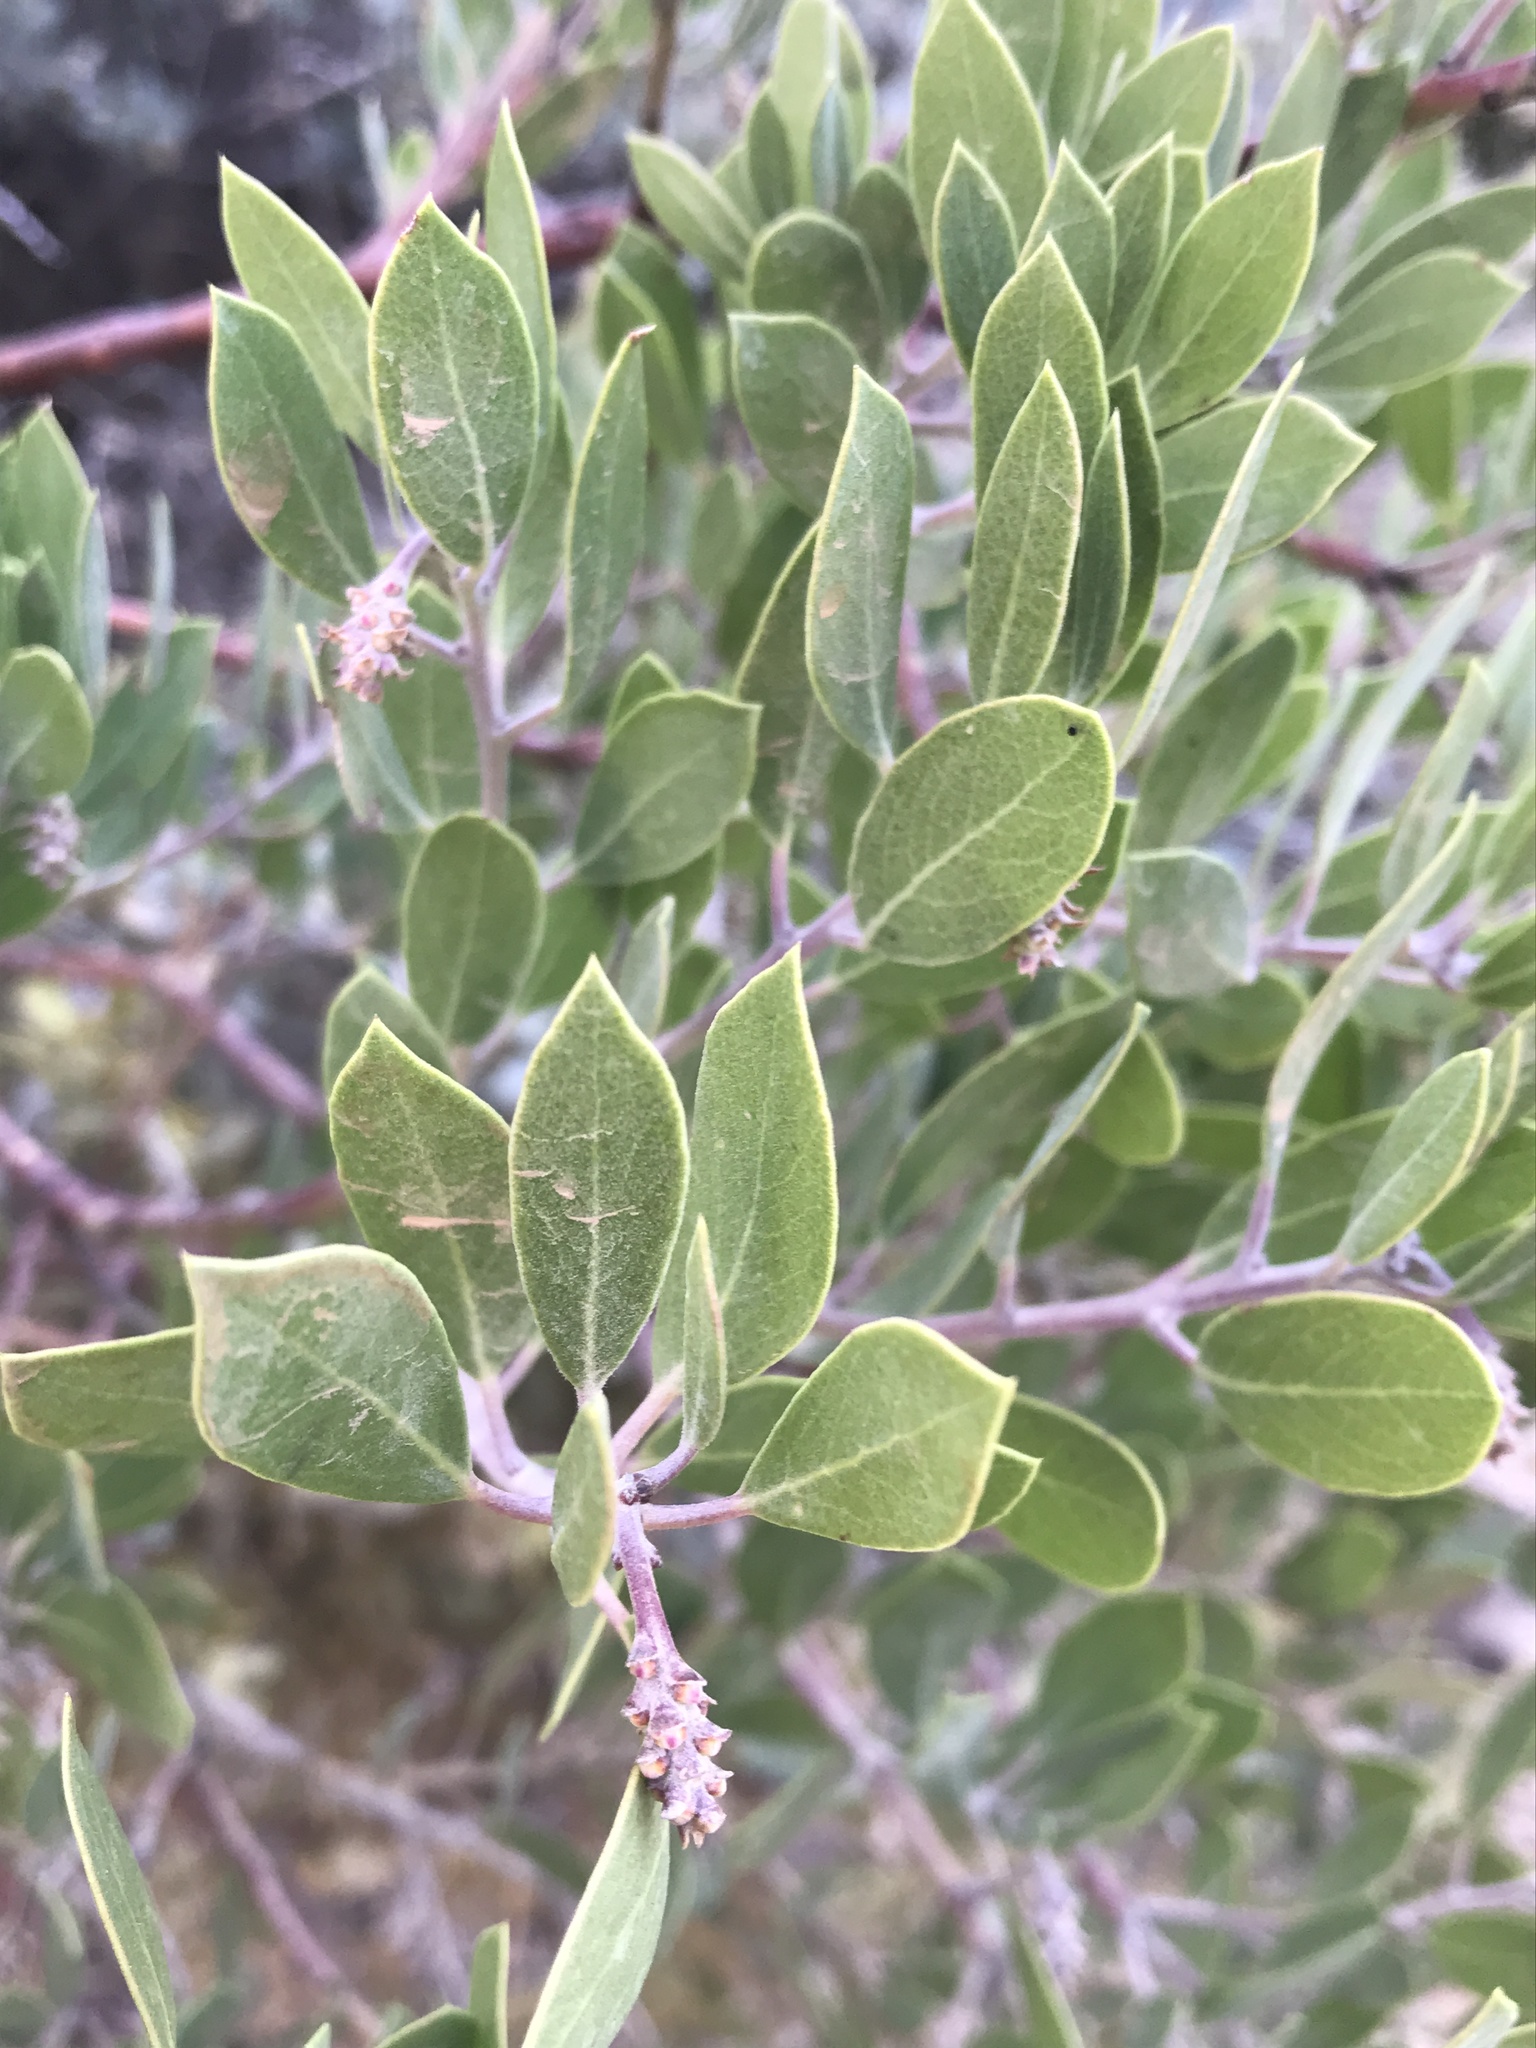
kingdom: Plantae
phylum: Tracheophyta
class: Magnoliopsida
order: Ericales
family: Ericaceae
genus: Arctostaphylos
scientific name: Arctostaphylos pungens
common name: Mexican manzanita
